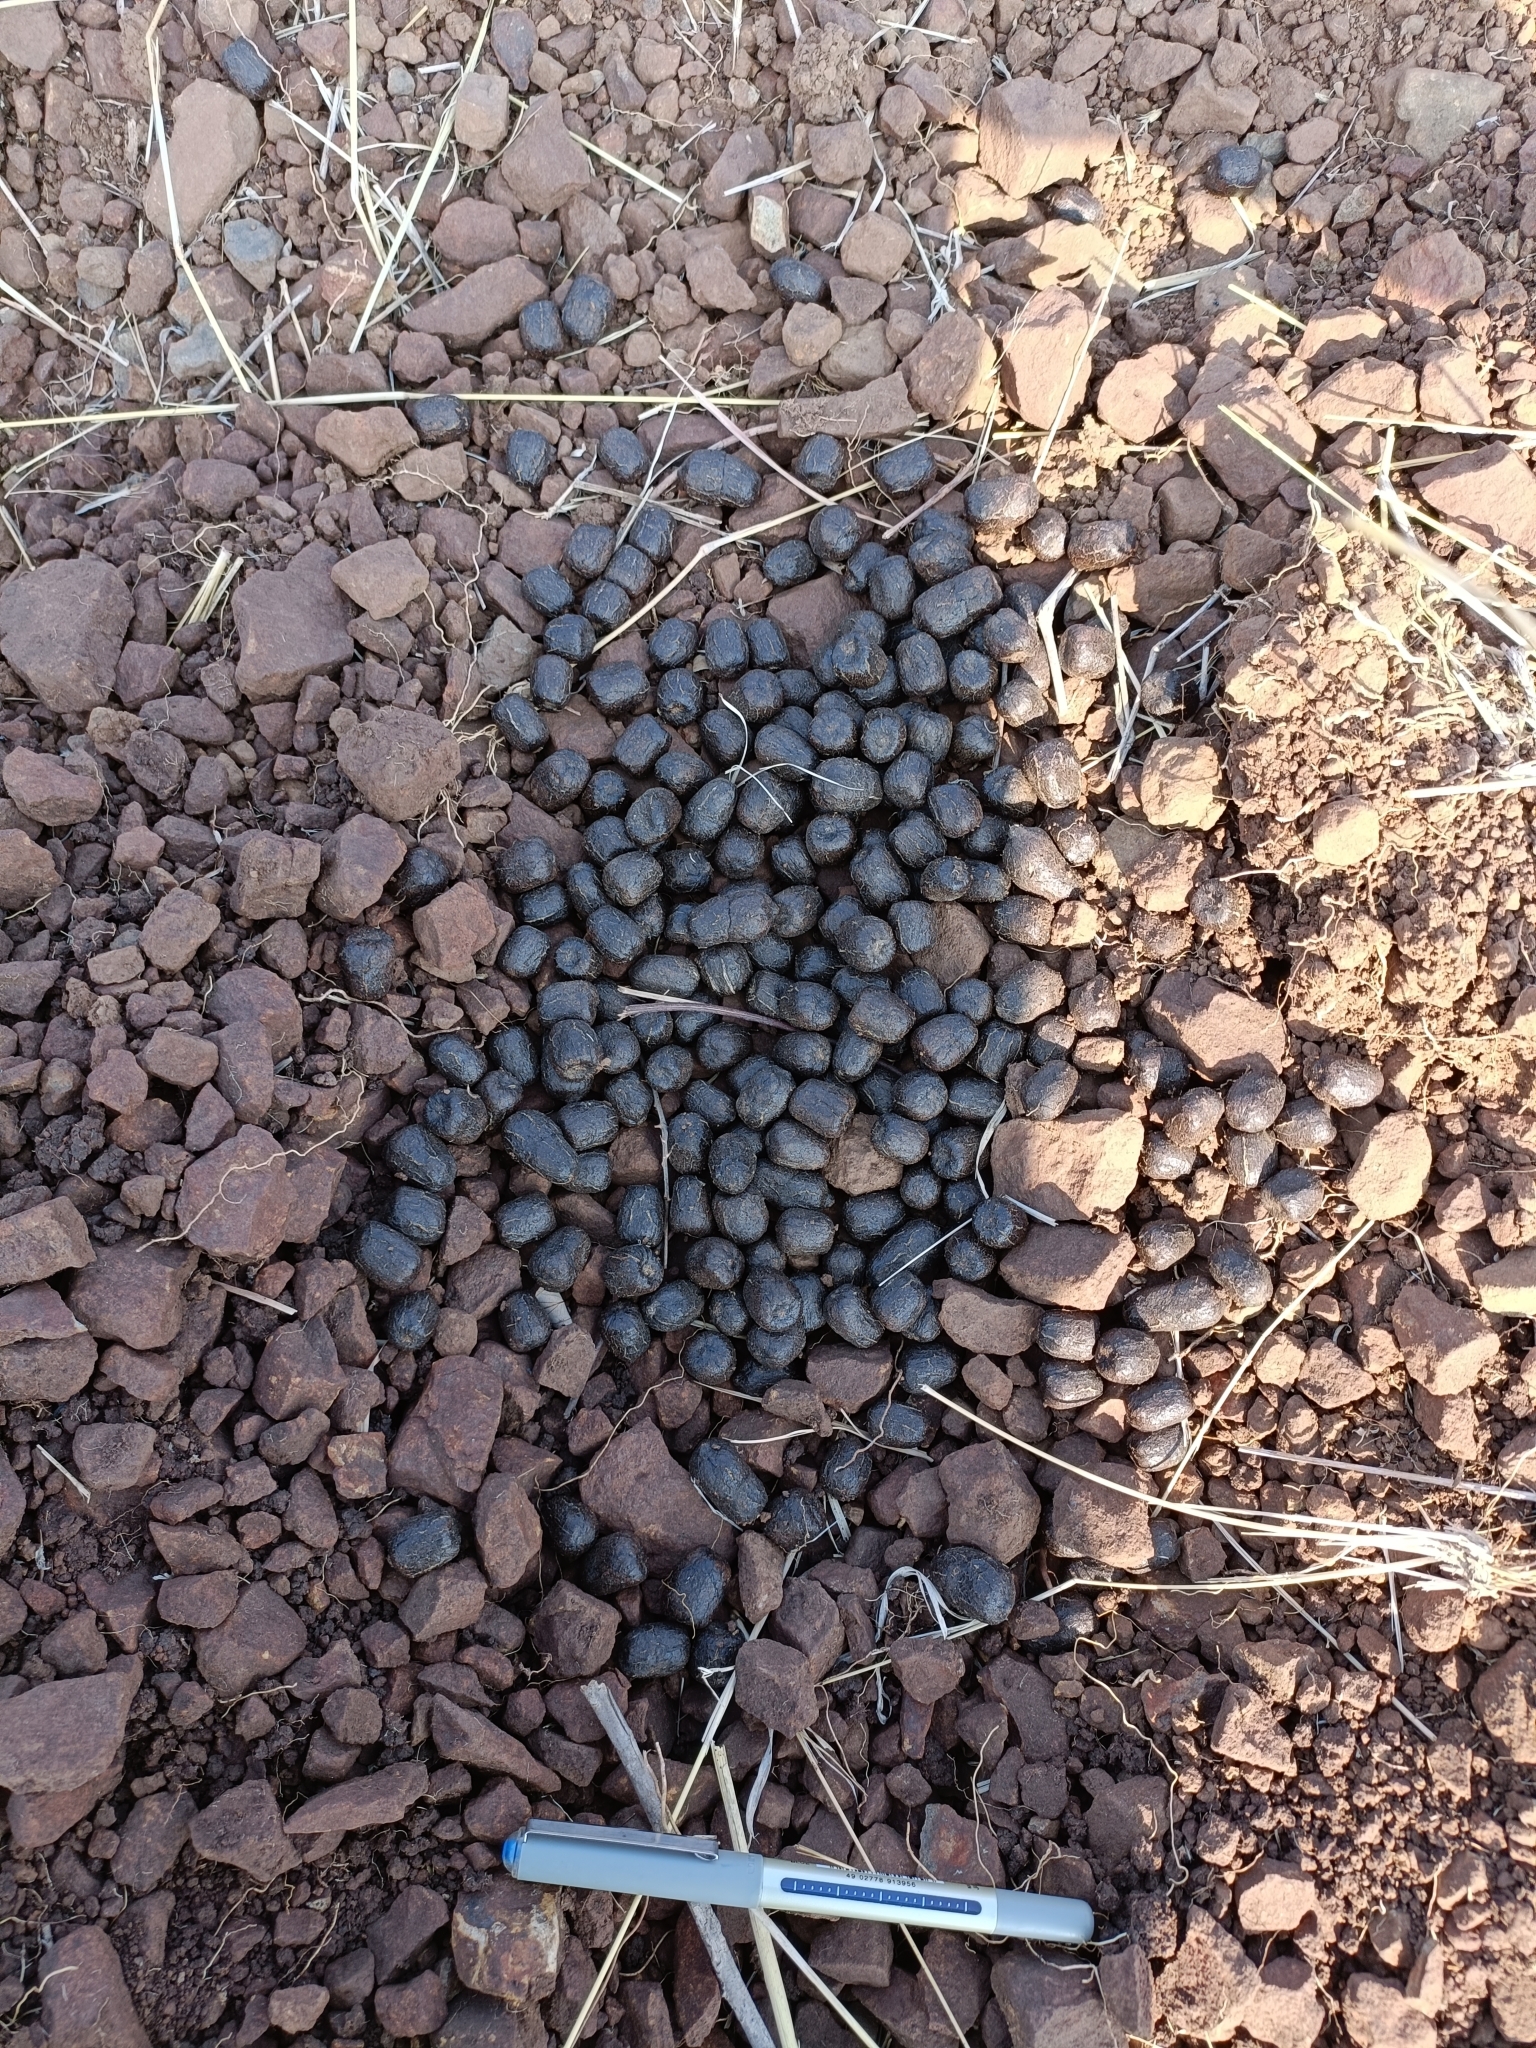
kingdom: Animalia
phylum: Chordata
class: Mammalia
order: Artiodactyla
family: Bovidae
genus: Boselaphus
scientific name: Boselaphus tragocamelus
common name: Nilgai
